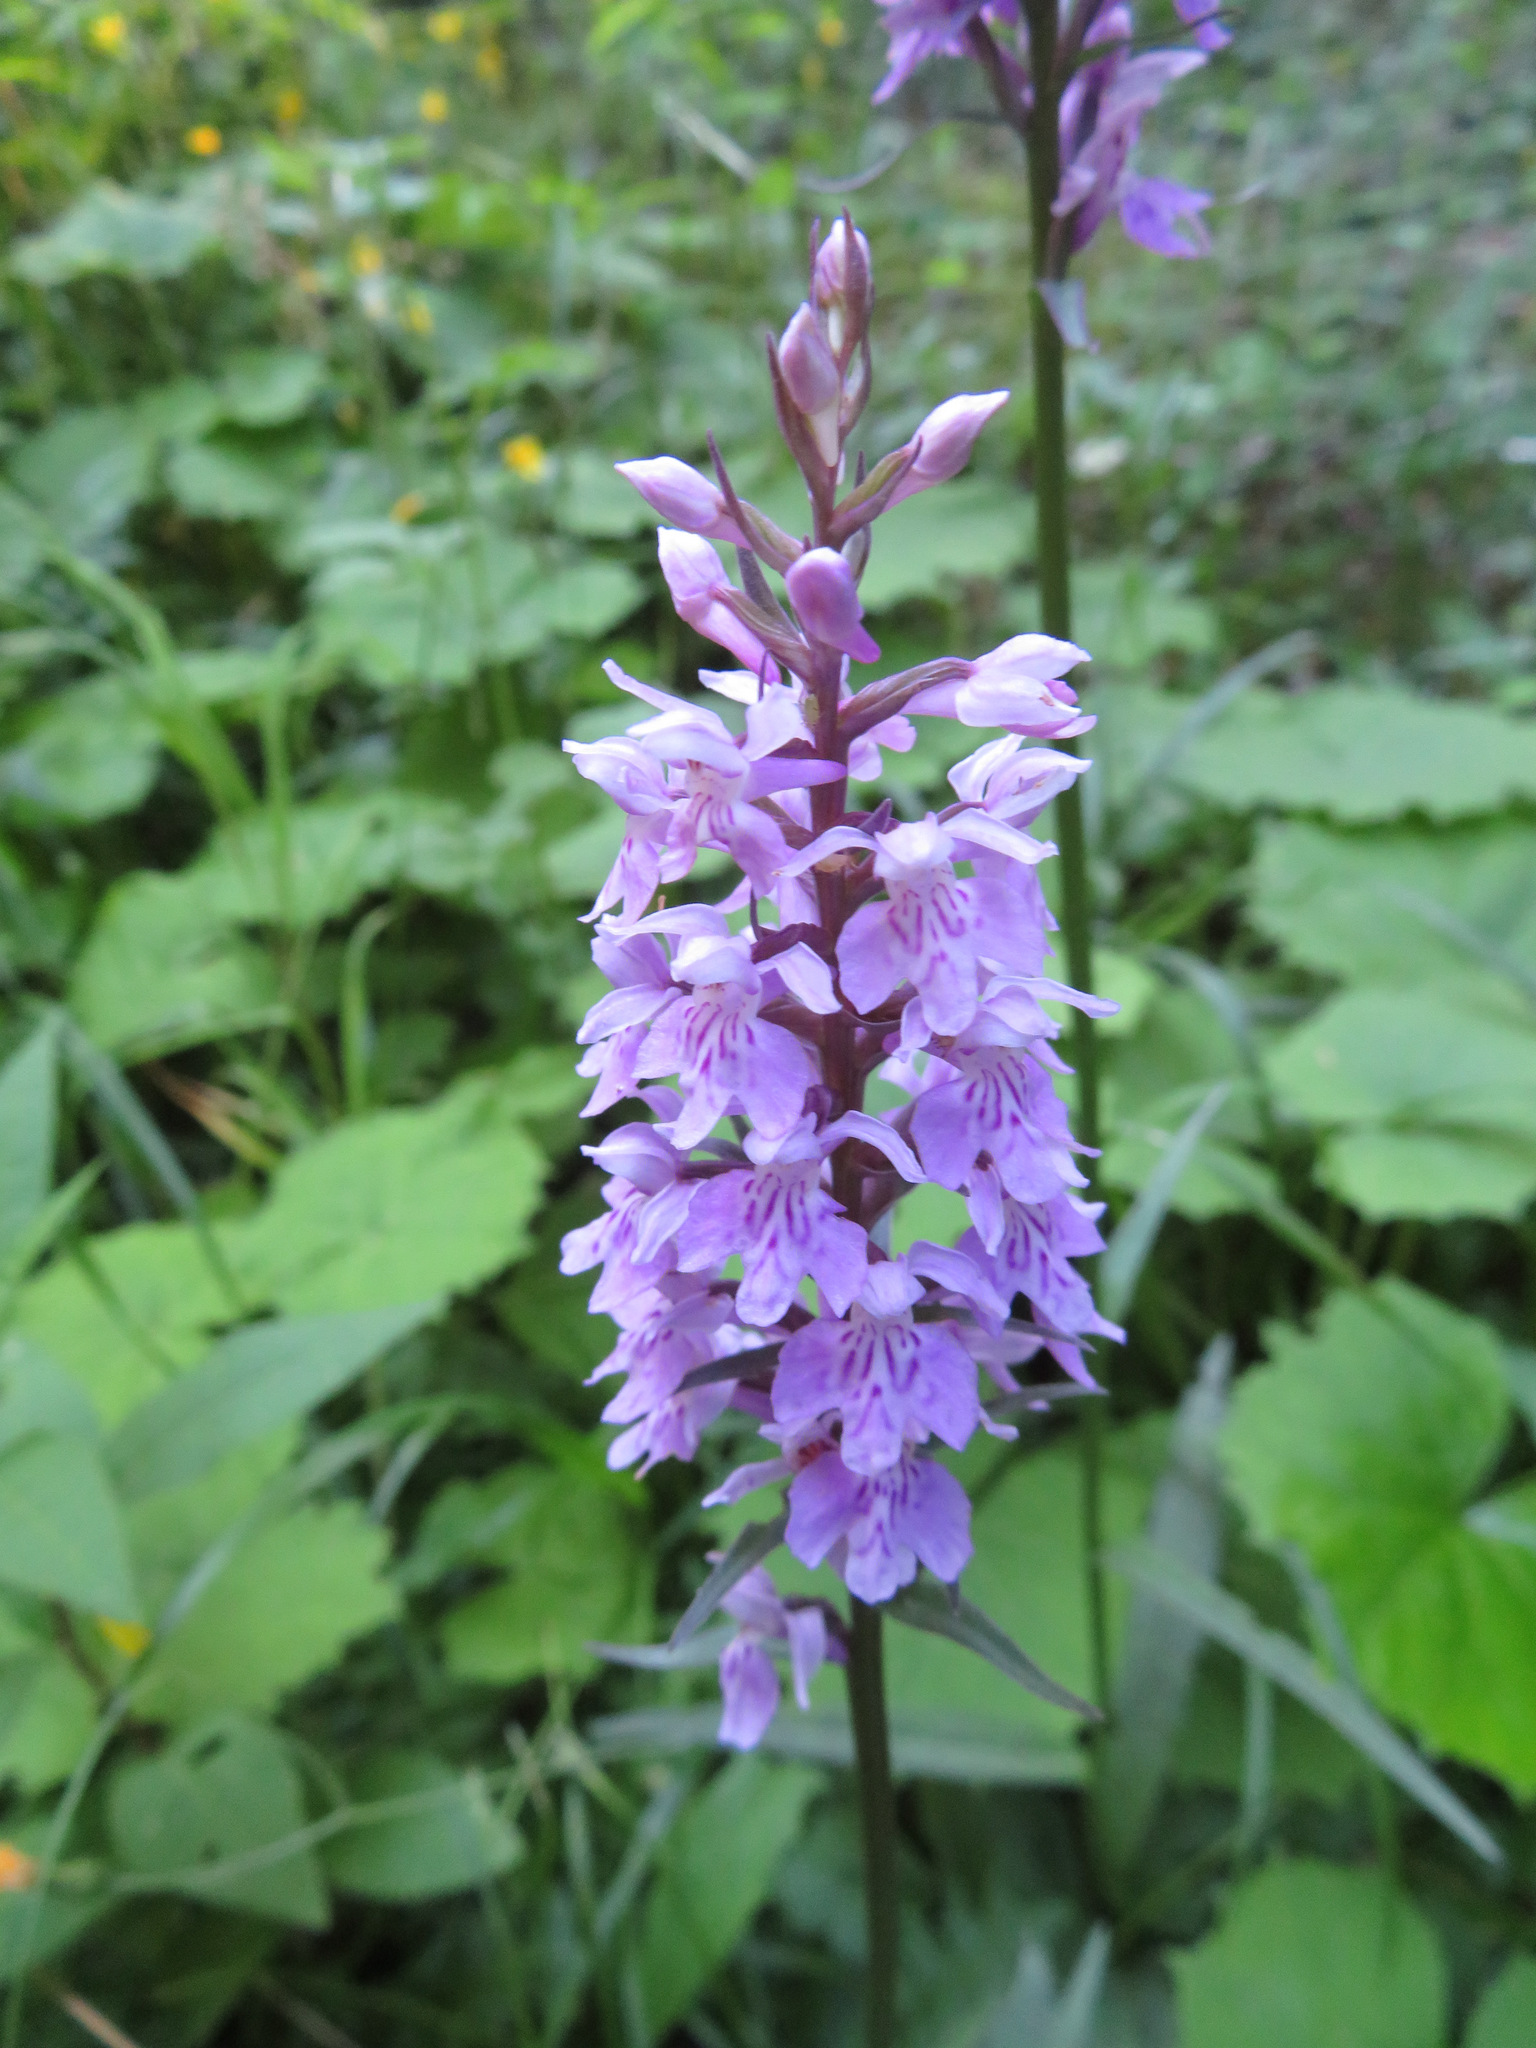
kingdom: Plantae
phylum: Tracheophyta
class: Liliopsida
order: Asparagales
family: Orchidaceae
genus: Dactylorhiza
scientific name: Dactylorhiza maculata
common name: Heath spotted-orchid
